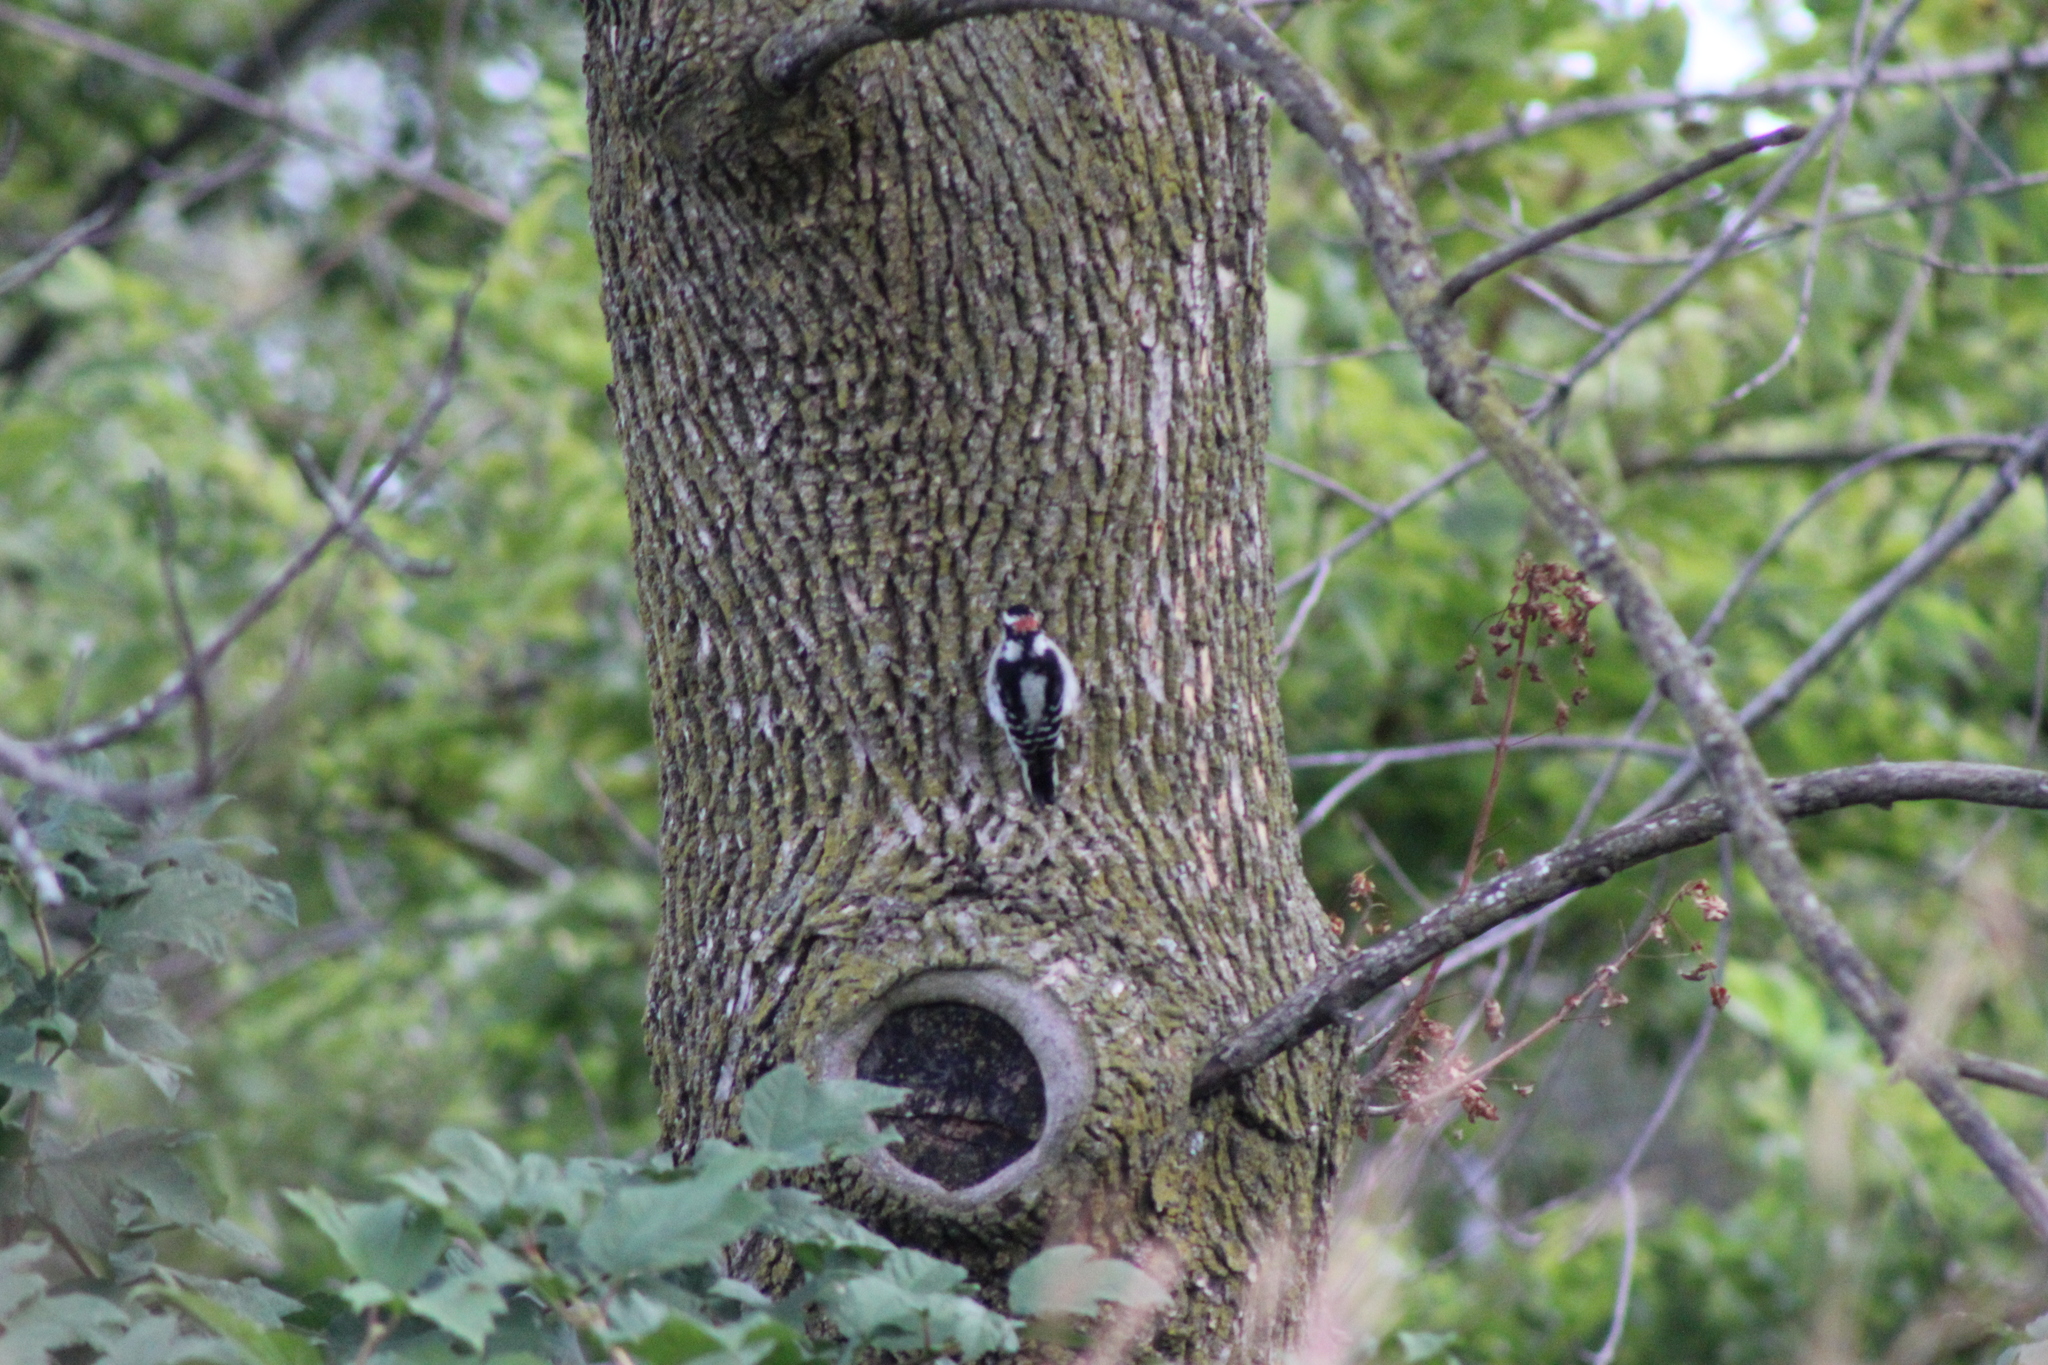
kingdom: Animalia
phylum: Chordata
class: Aves
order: Piciformes
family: Picidae
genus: Dryobates
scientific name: Dryobates pubescens
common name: Downy woodpecker
